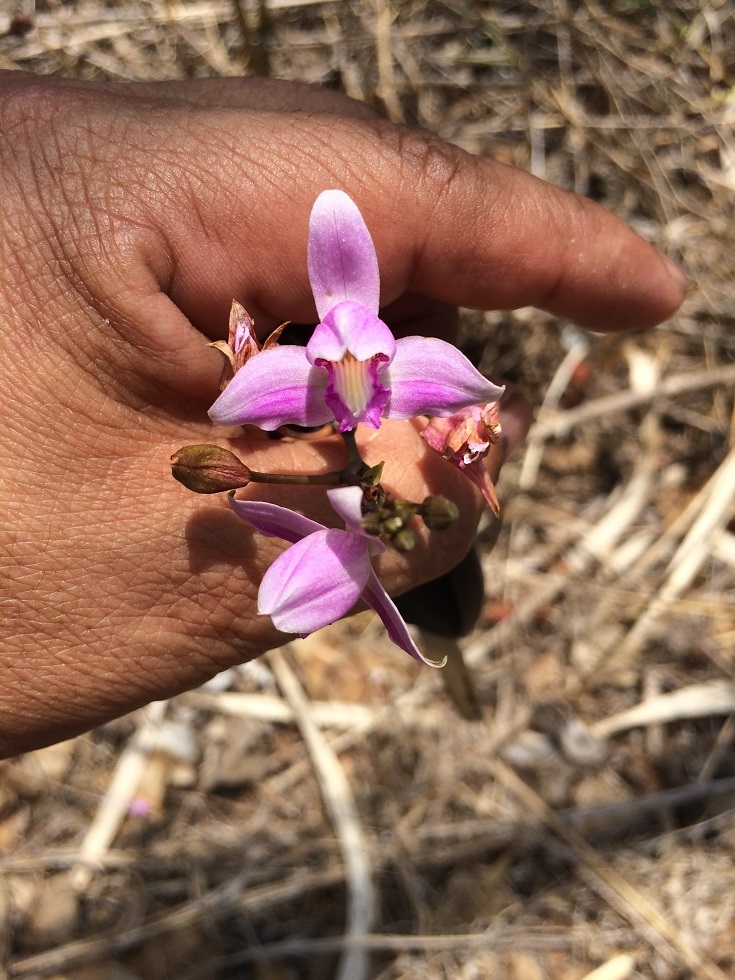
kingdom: Plantae
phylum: Tracheophyta
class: Liliopsida
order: Asparagales
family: Orchidaceae
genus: Bletia
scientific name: Bletia purpurea
